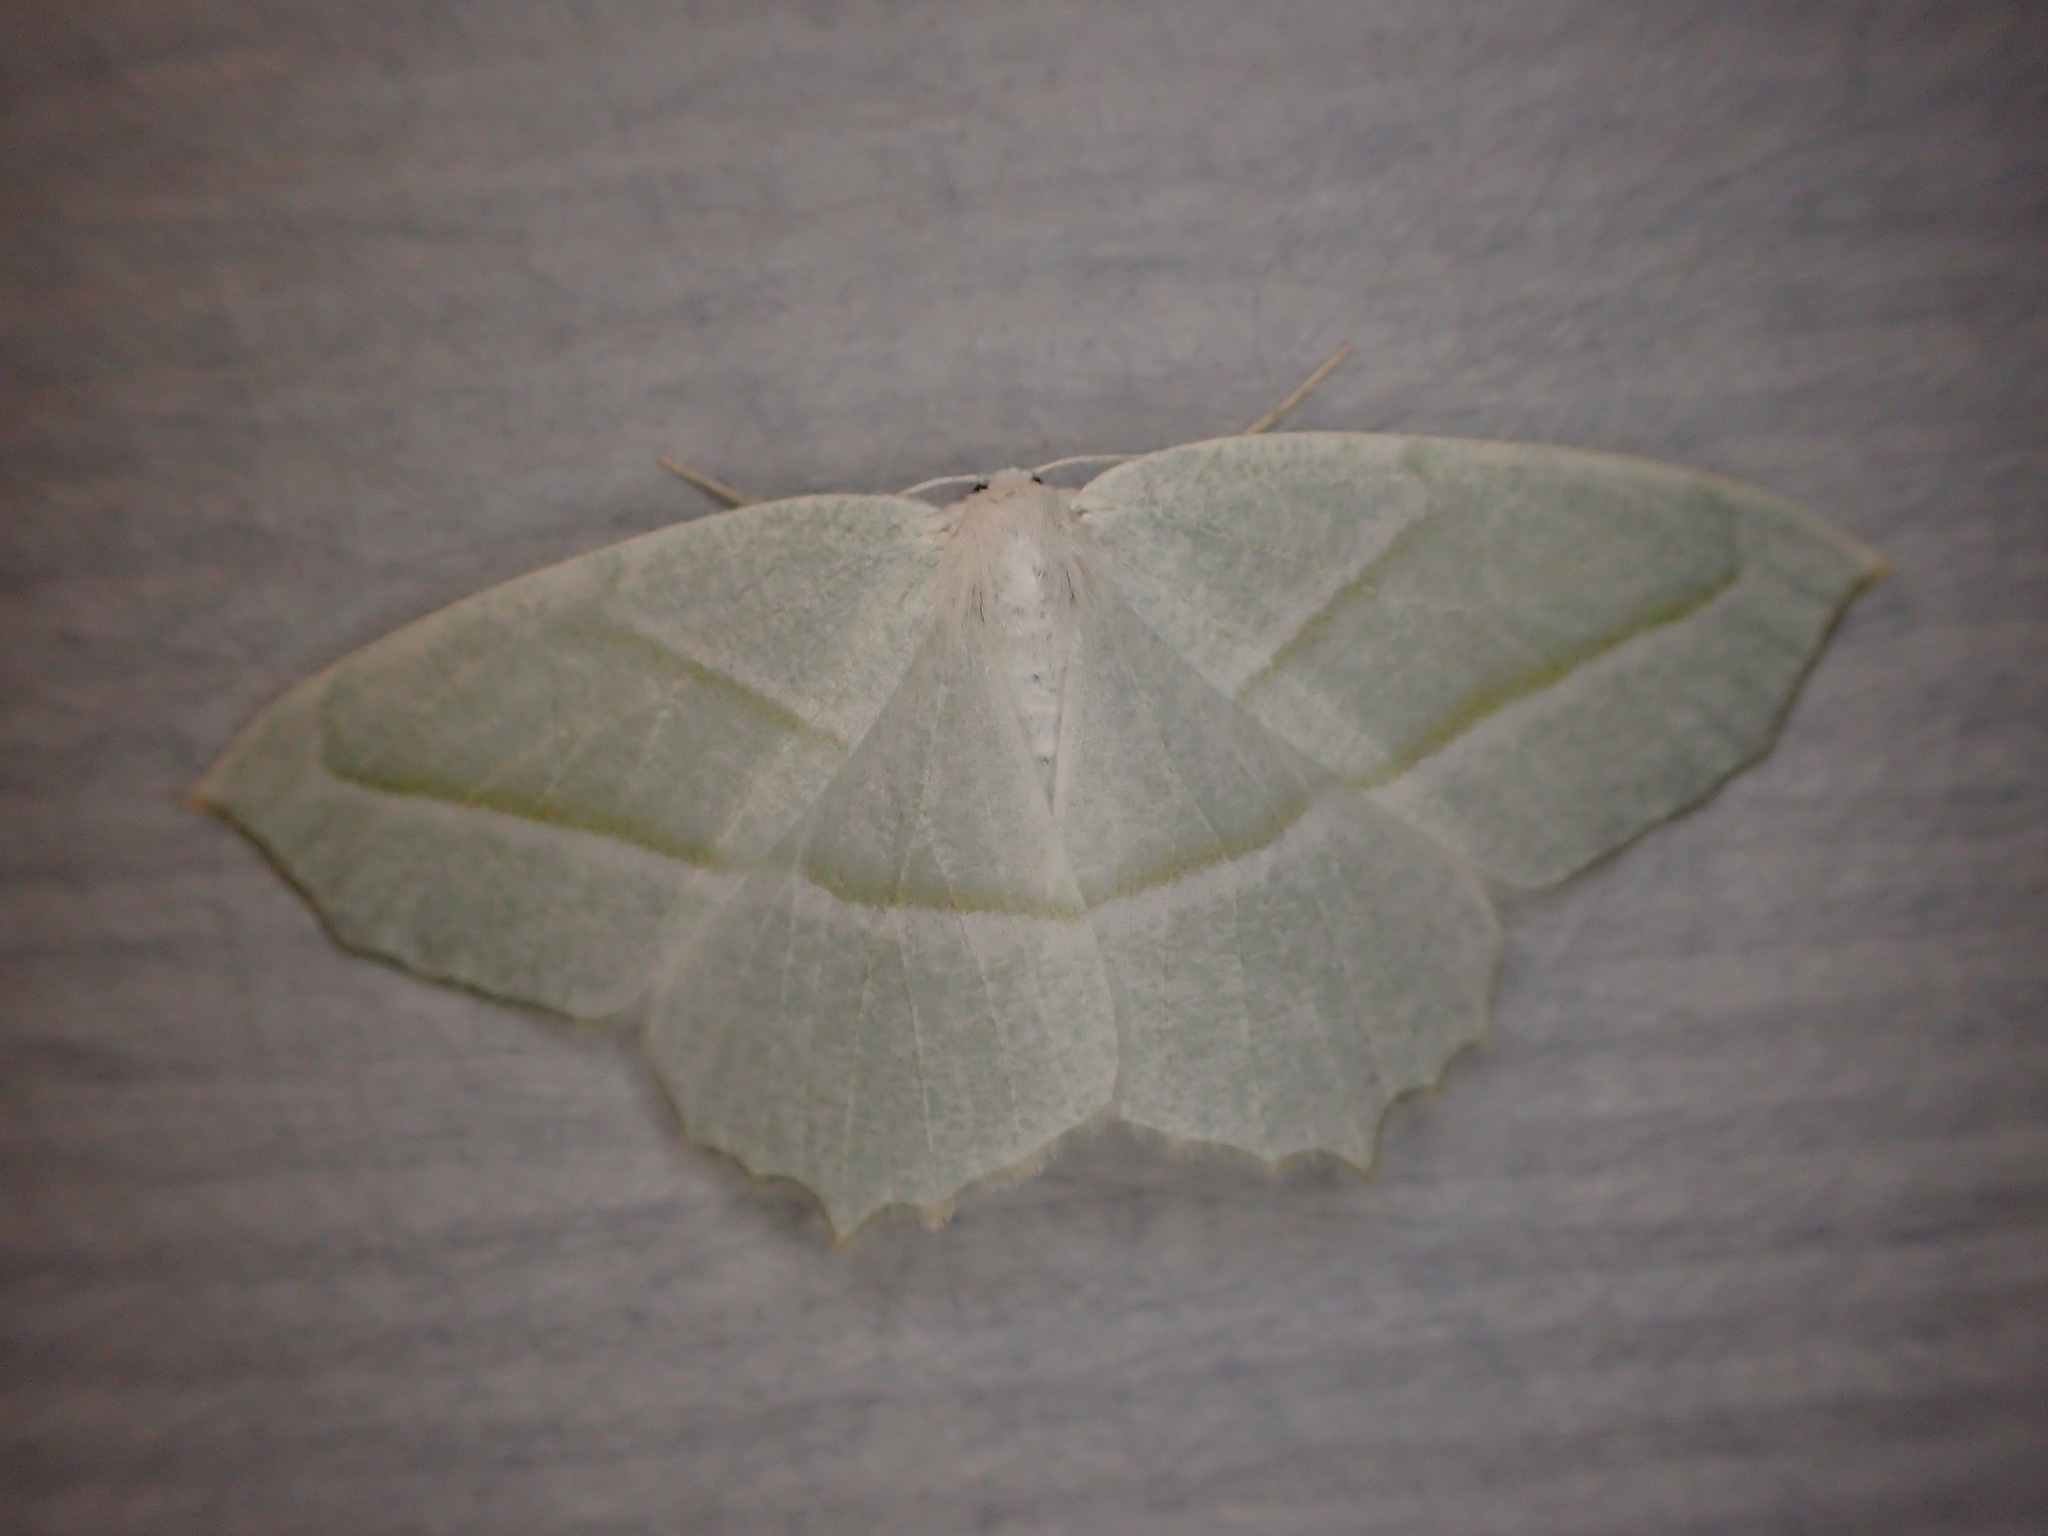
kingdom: Animalia
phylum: Arthropoda
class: Insecta
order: Lepidoptera
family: Geometridae
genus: Campaea
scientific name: Campaea perlata
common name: Fringed looper
